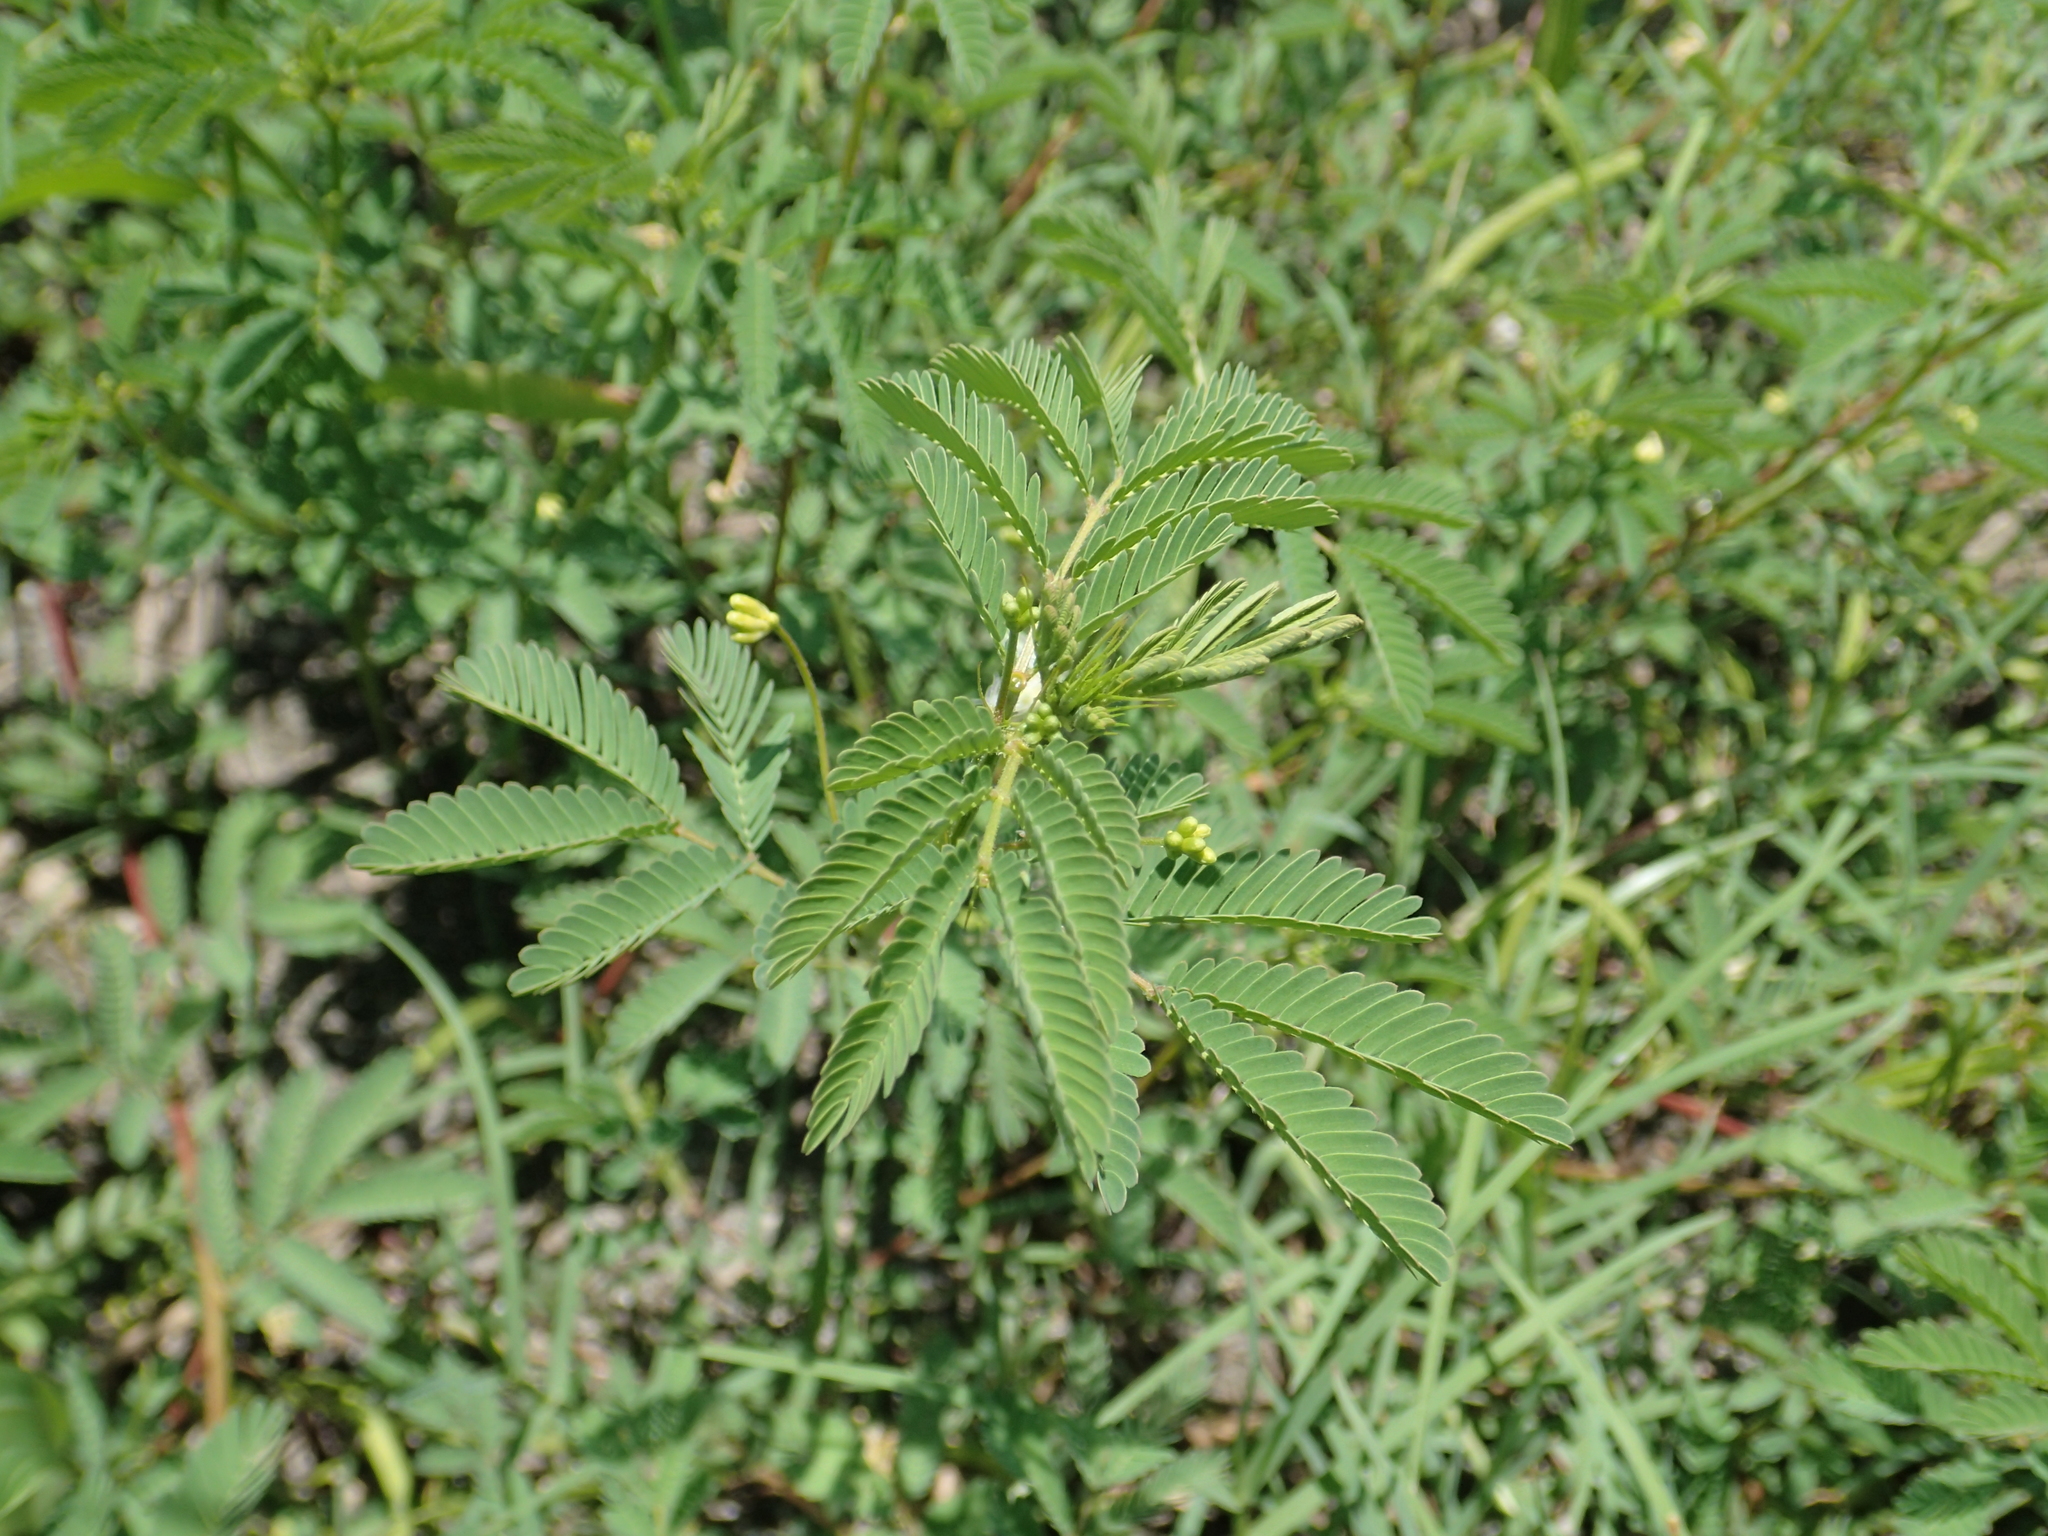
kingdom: Plantae
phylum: Tracheophyta
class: Magnoliopsida
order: Fabales
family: Fabaceae
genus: Desmanthus
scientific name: Desmanthus virgatus
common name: Wild tantan
